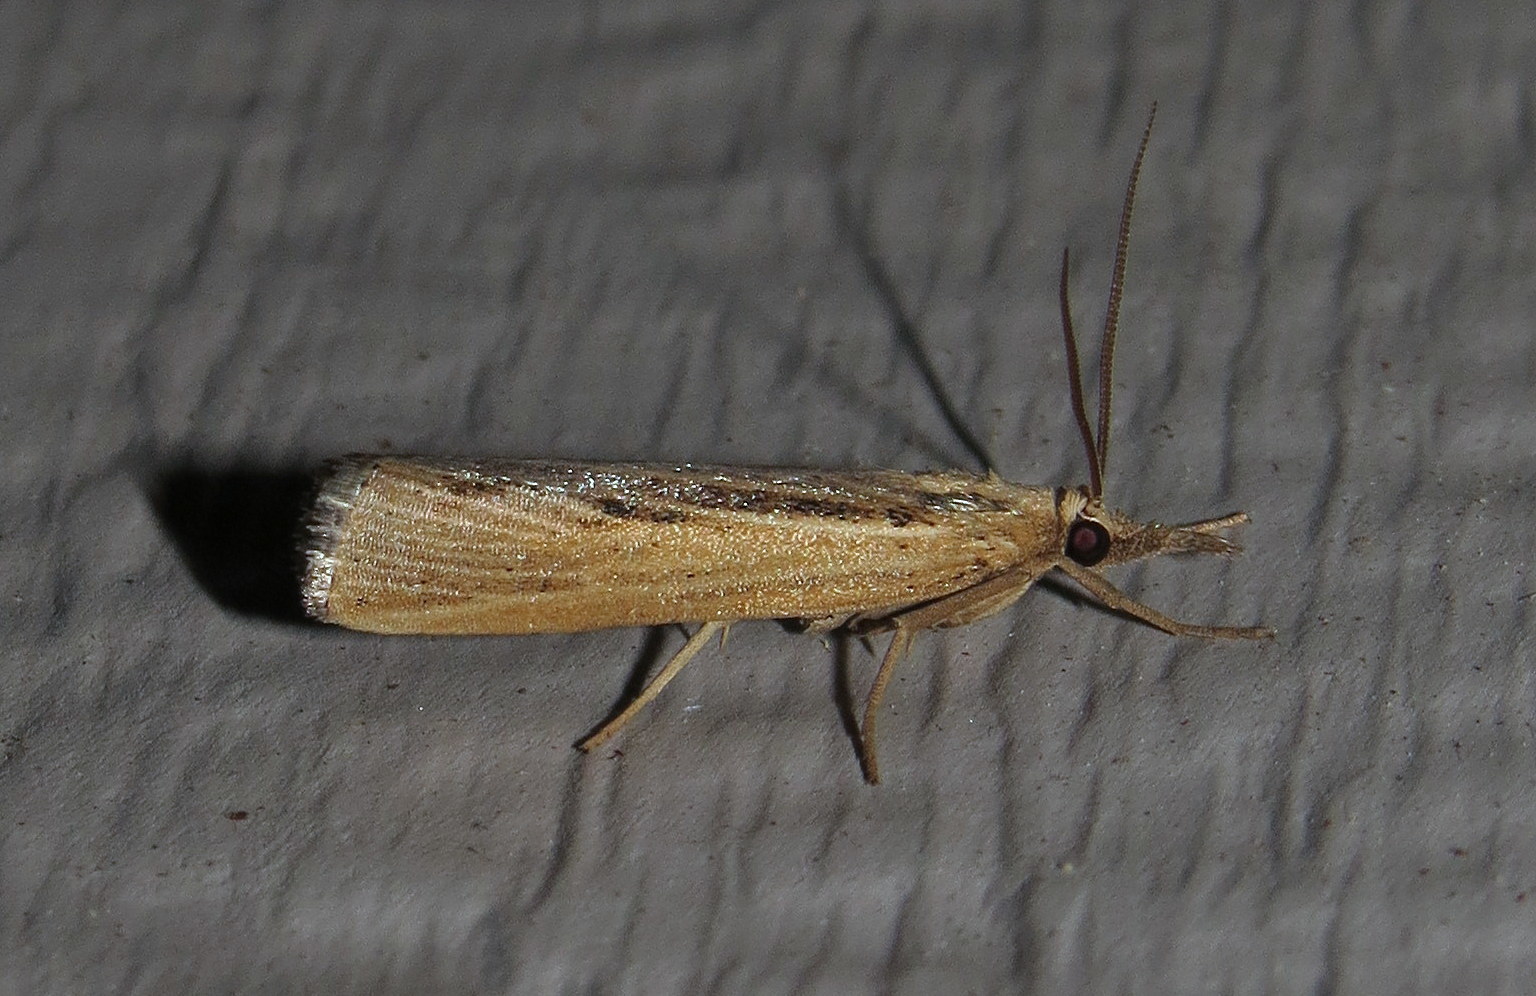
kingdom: Animalia
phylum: Arthropoda
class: Insecta
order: Lepidoptera
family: Crambidae
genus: Pediasia
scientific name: Pediasia trisecta
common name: Sod webworm moth
